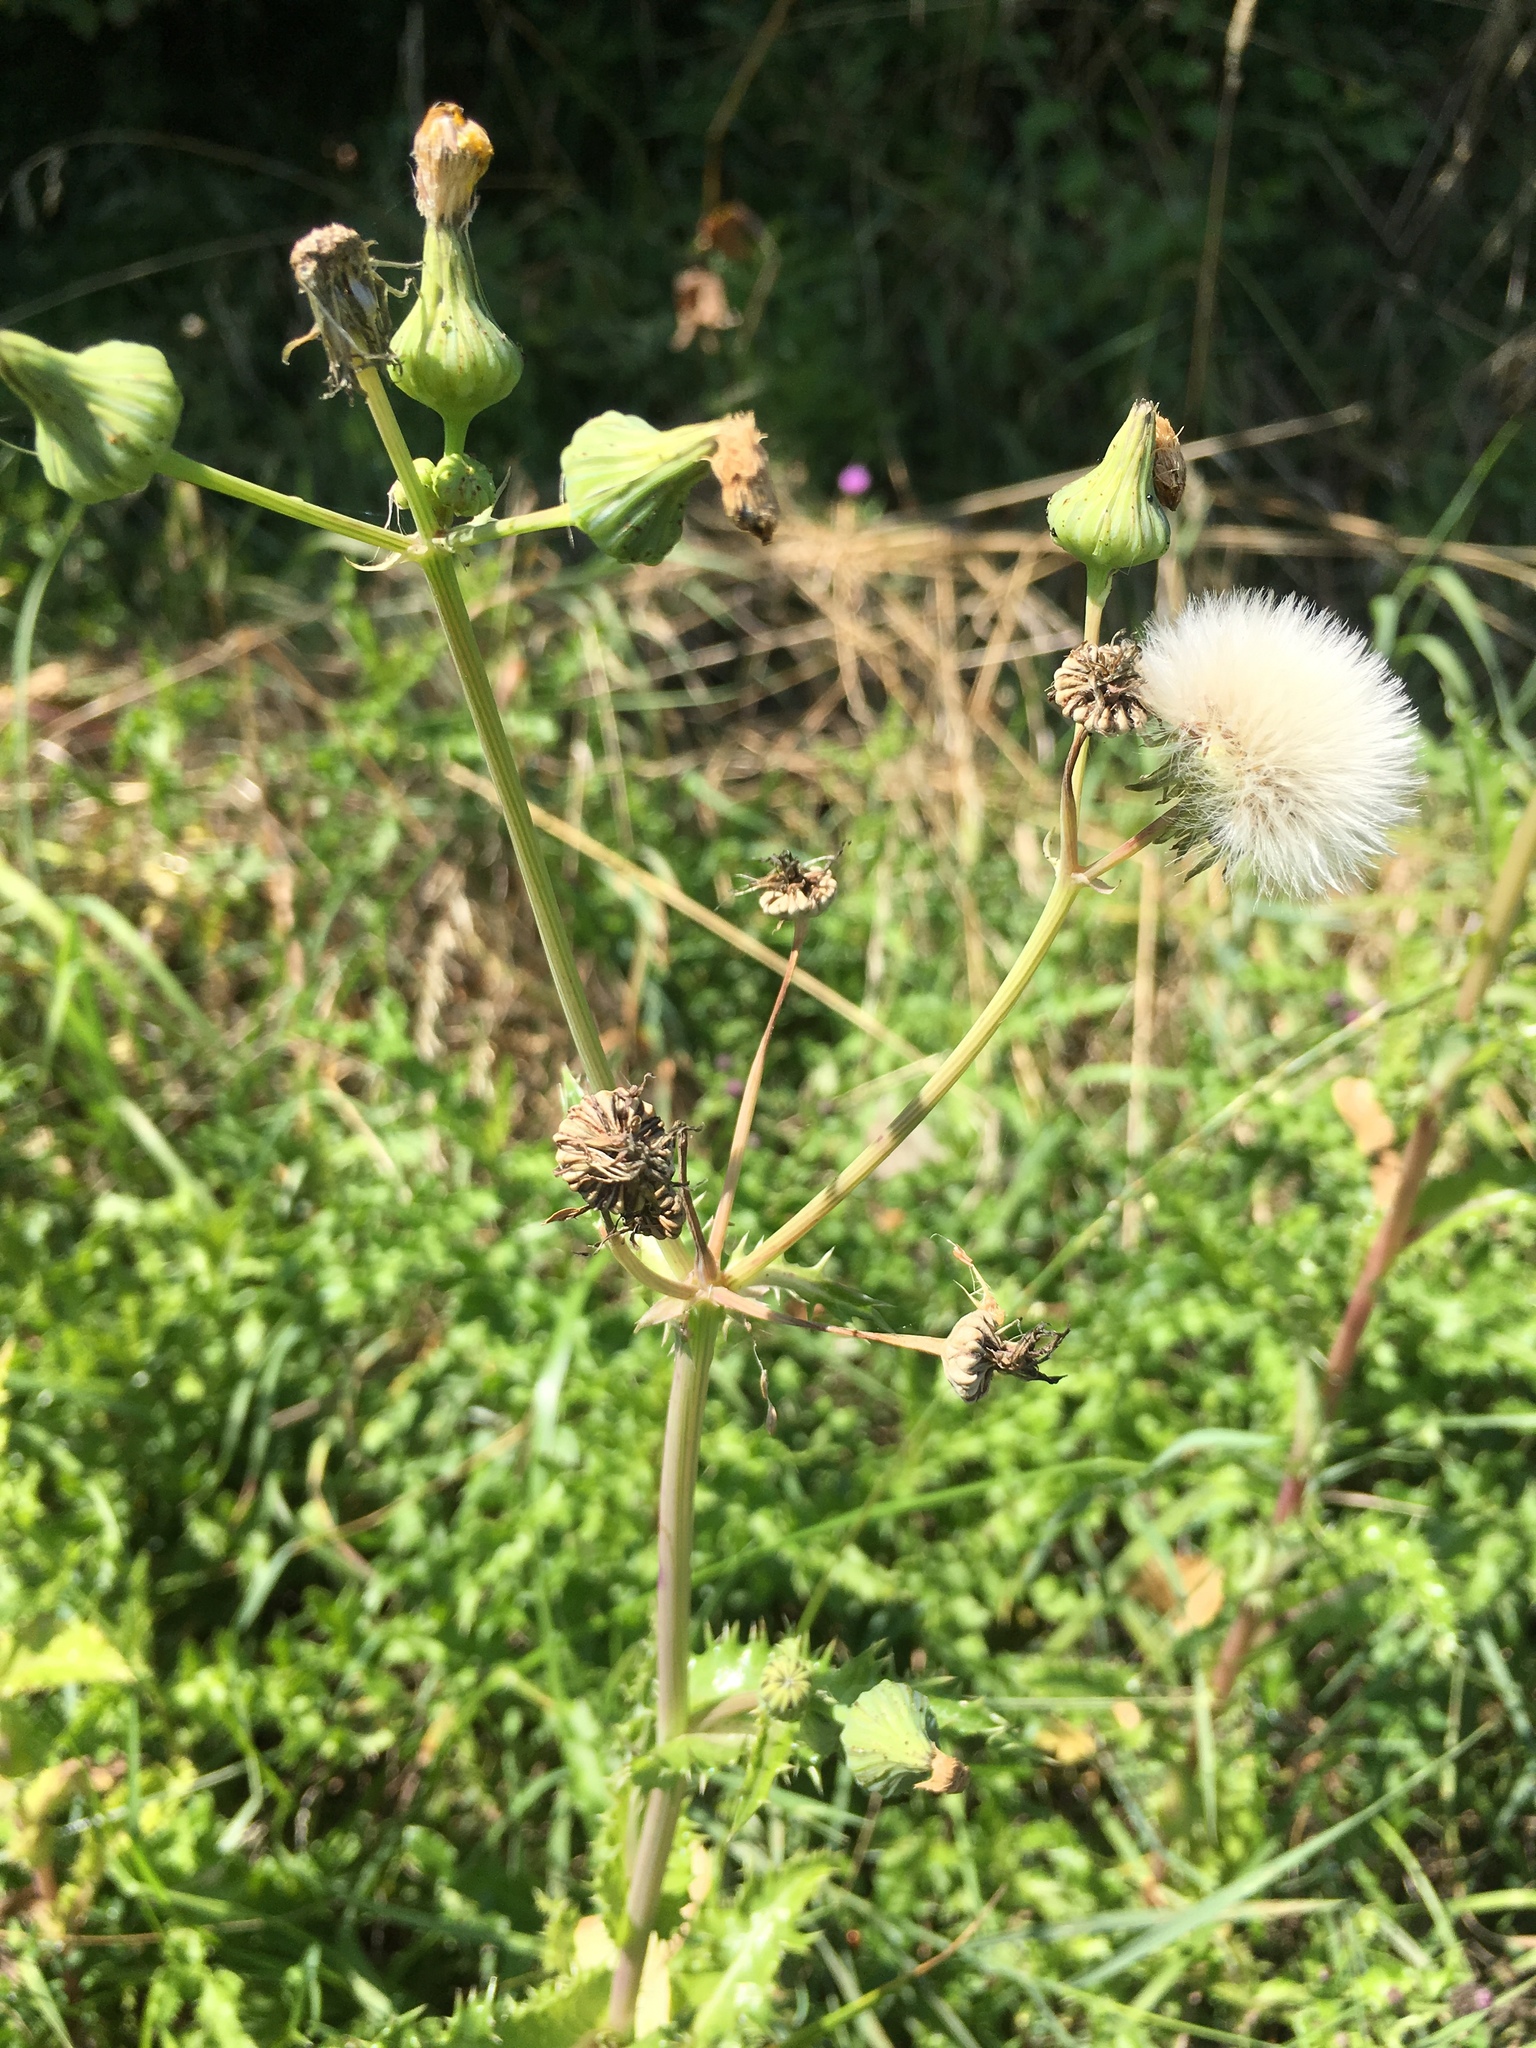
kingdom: Plantae
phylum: Tracheophyta
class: Magnoliopsida
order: Asterales
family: Asteraceae
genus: Sonchus
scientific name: Sonchus asper
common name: Prickly sow-thistle
